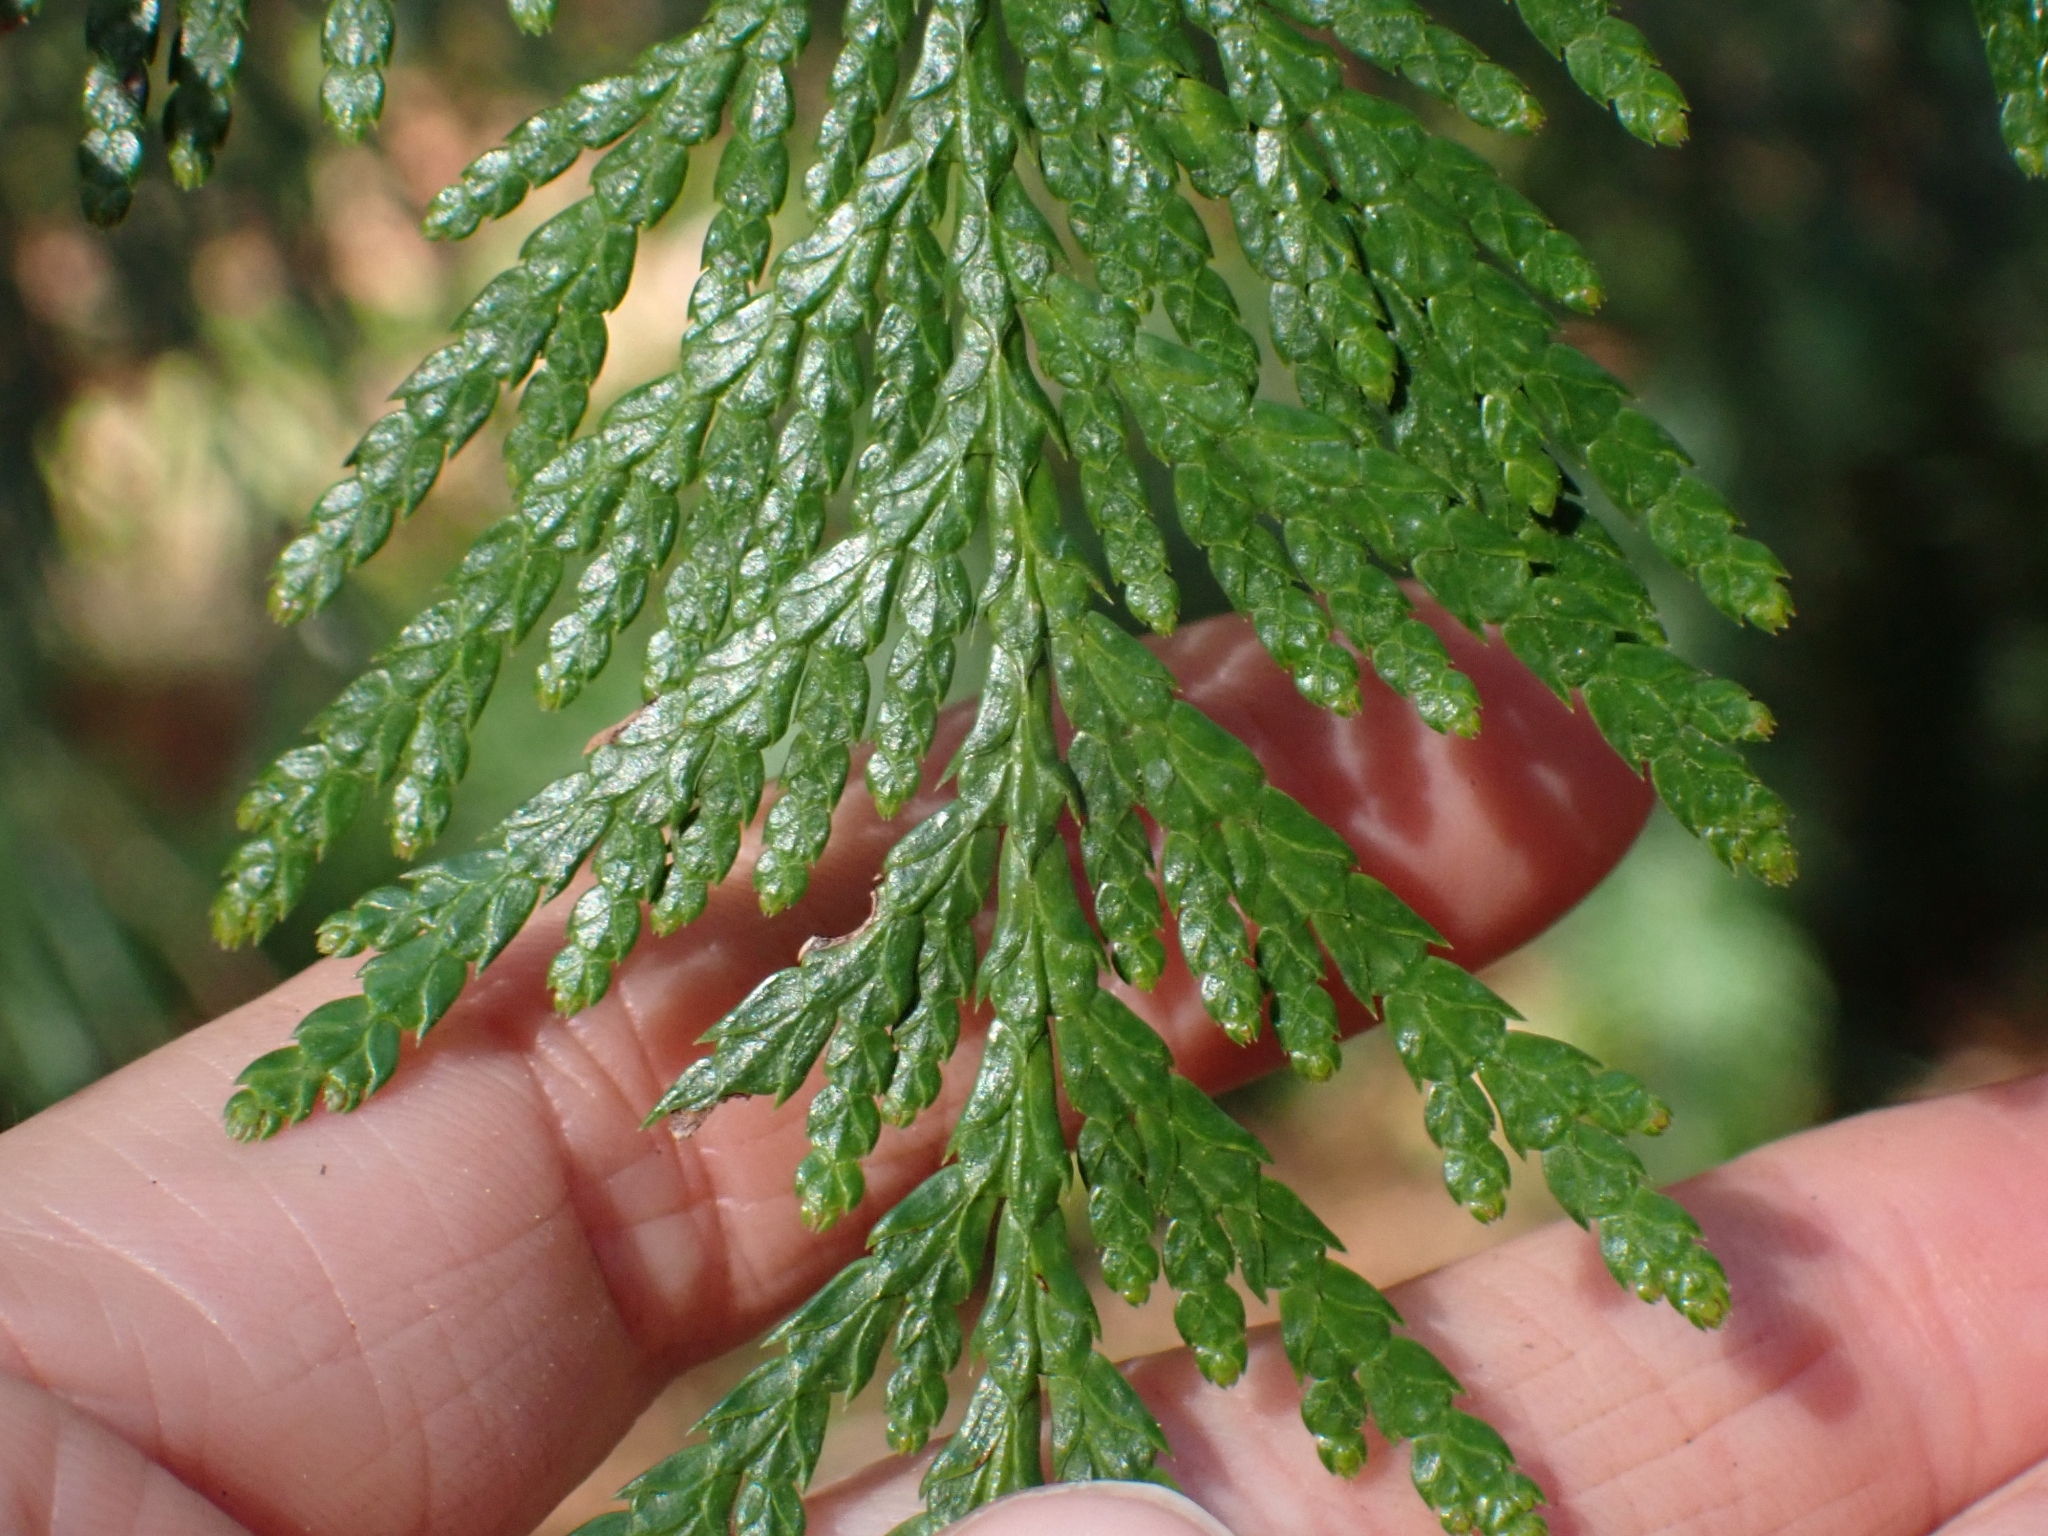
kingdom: Plantae
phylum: Tracheophyta
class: Pinopsida
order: Pinales
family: Cupressaceae
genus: Thuja
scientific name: Thuja plicata
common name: Western red-cedar
